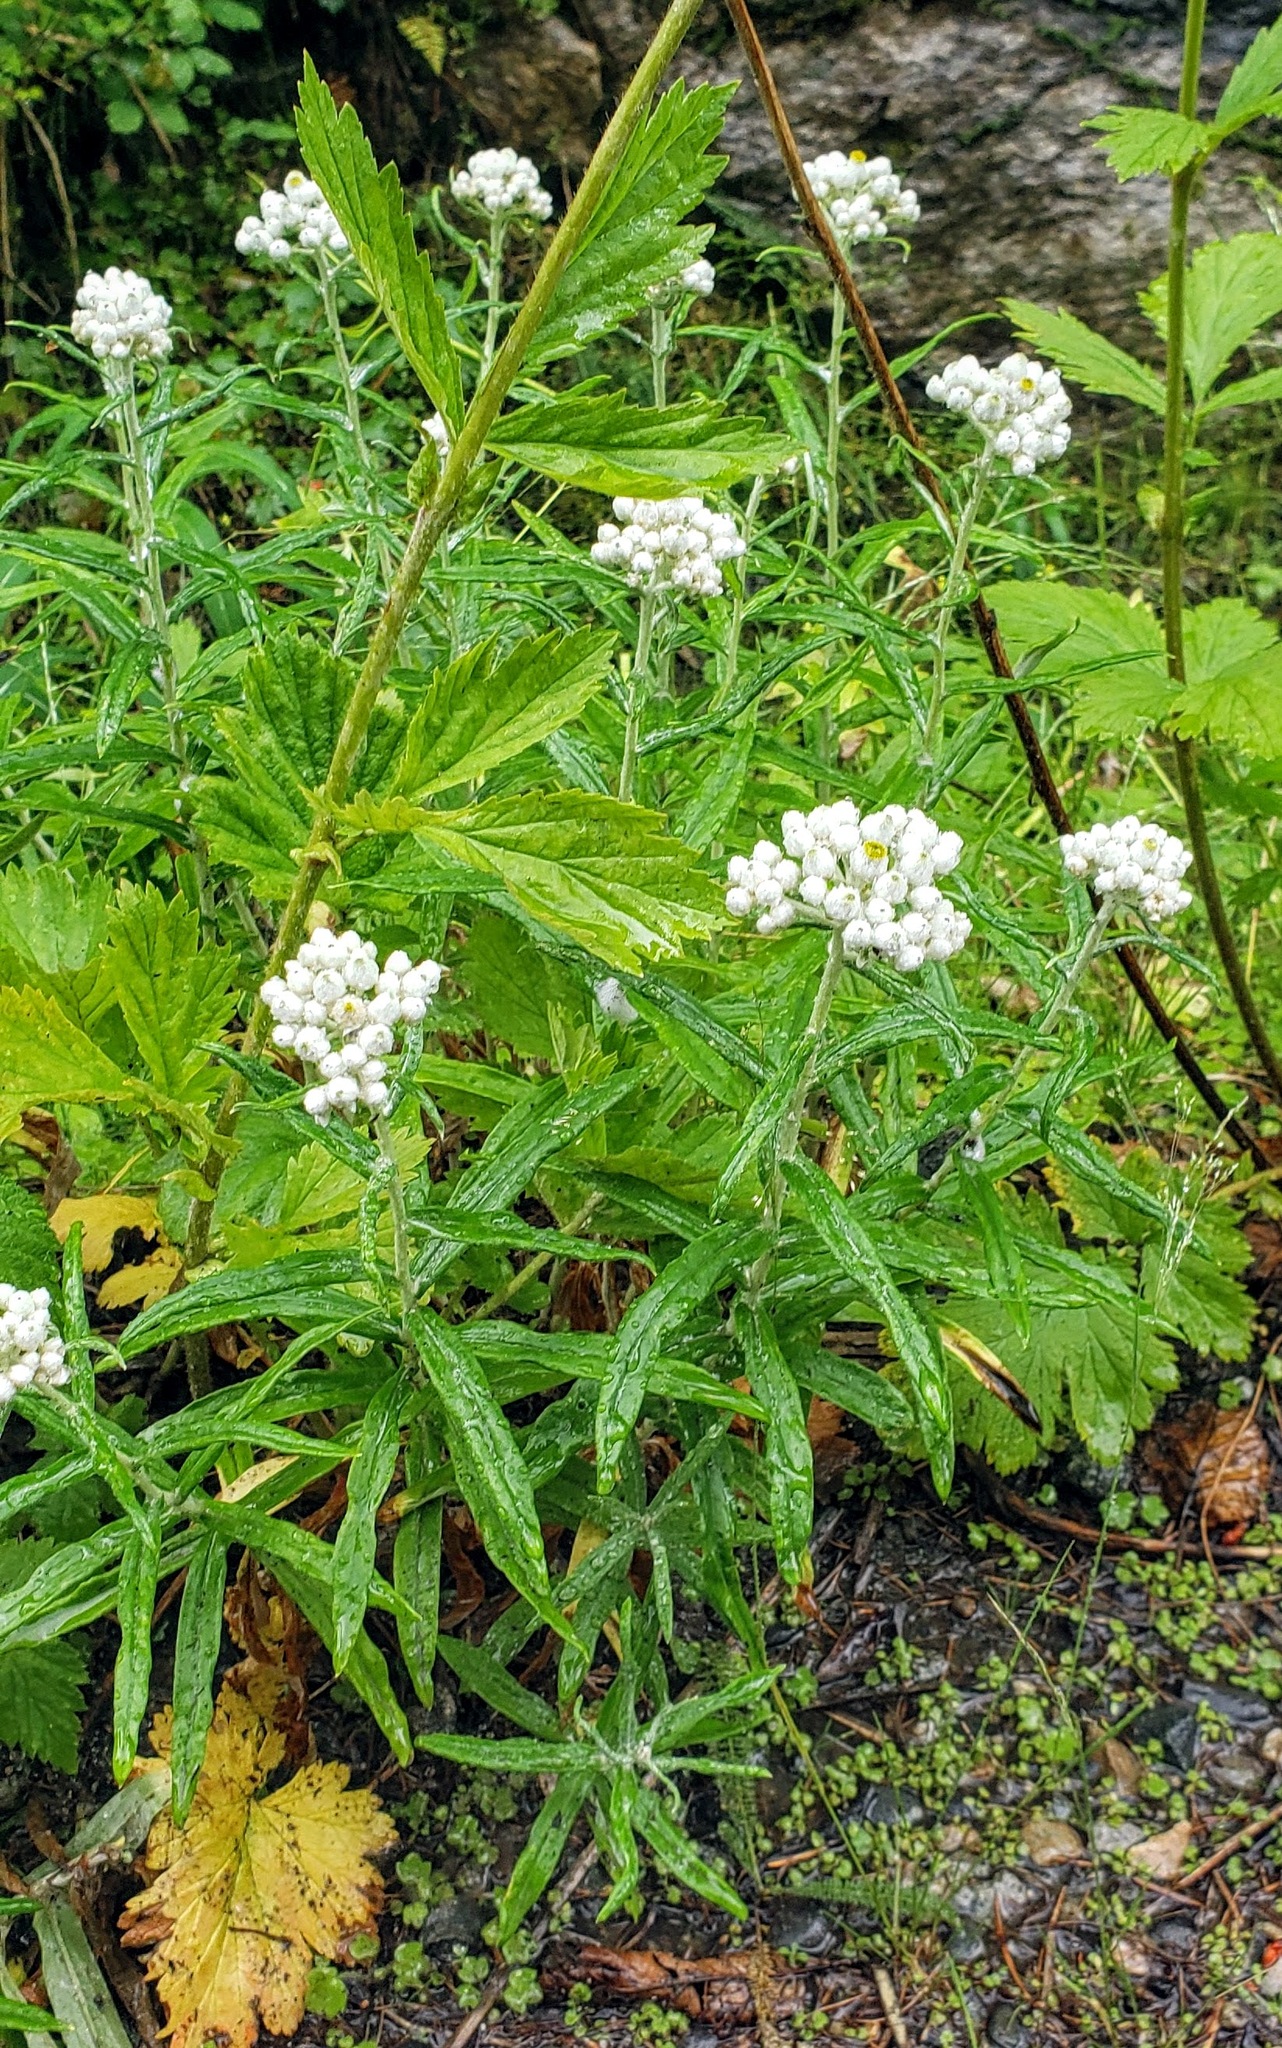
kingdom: Plantae
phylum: Tracheophyta
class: Magnoliopsida
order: Asterales
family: Asteraceae
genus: Anaphalis
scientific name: Anaphalis margaritacea
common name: Pearly everlasting
